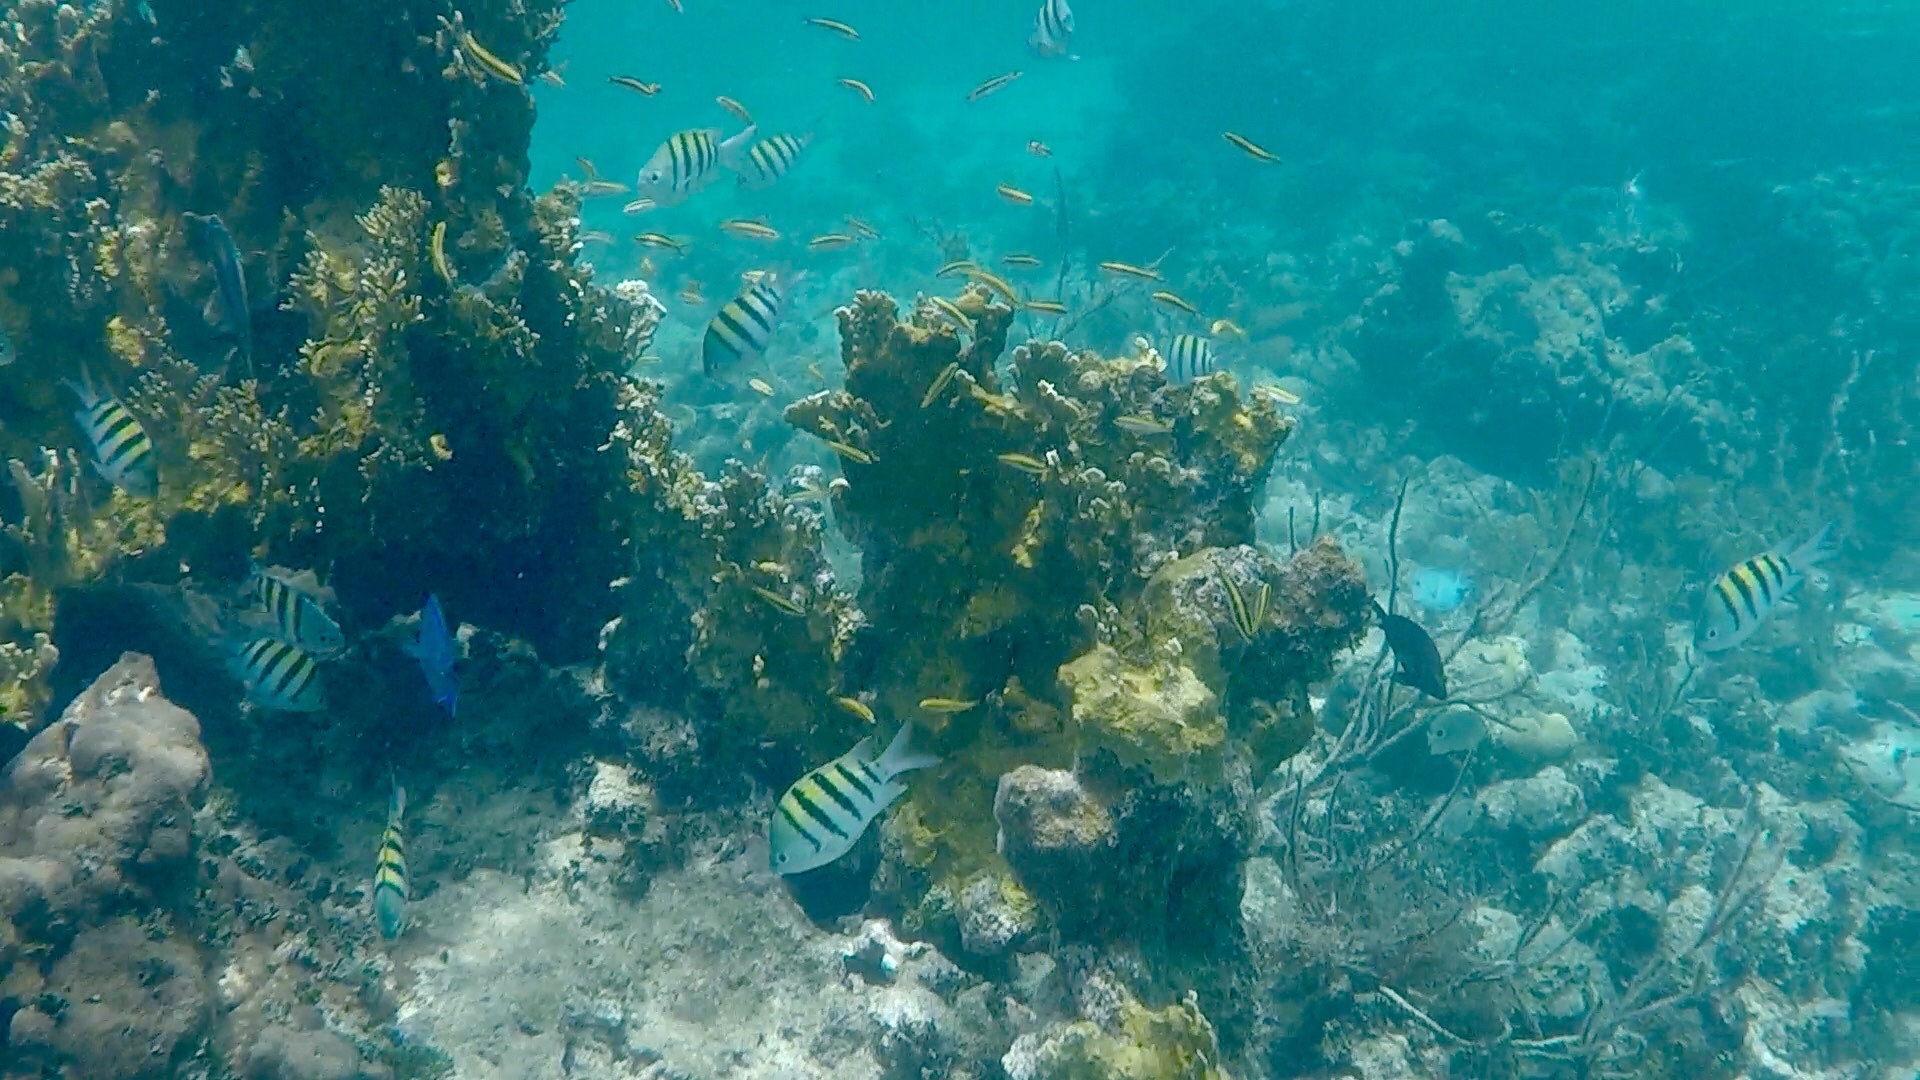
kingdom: Animalia
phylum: Chordata
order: Perciformes
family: Pomacentridae
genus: Abudefduf
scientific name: Abudefduf saxatilis
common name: Sergeant major
